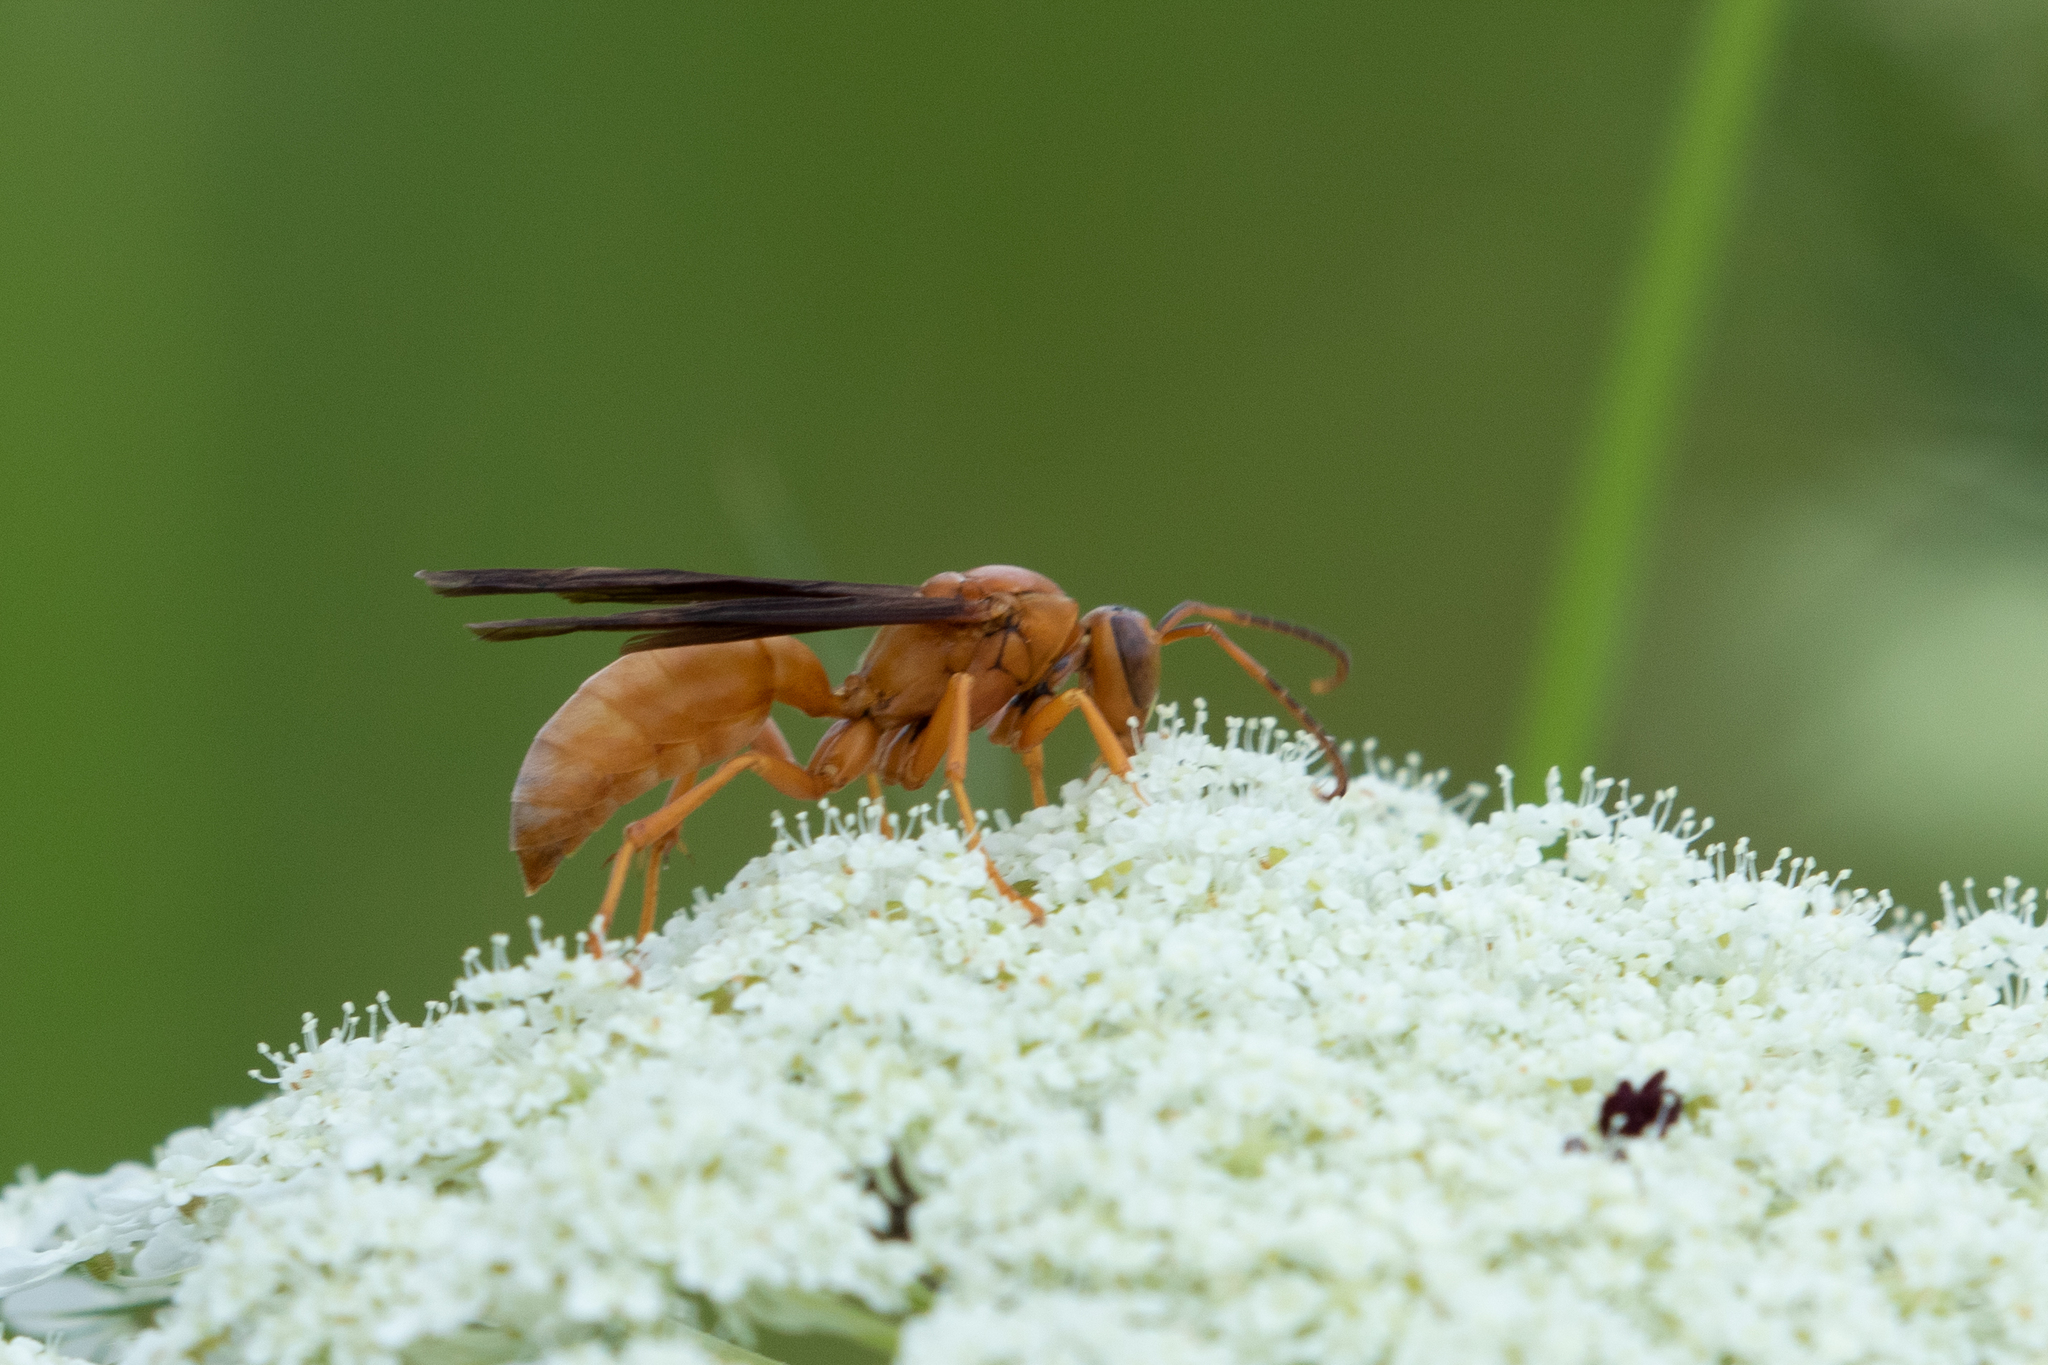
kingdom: Animalia
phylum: Arthropoda
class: Insecta
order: Hymenoptera
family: Vespidae
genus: Fuscopolistes
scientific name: Fuscopolistes
